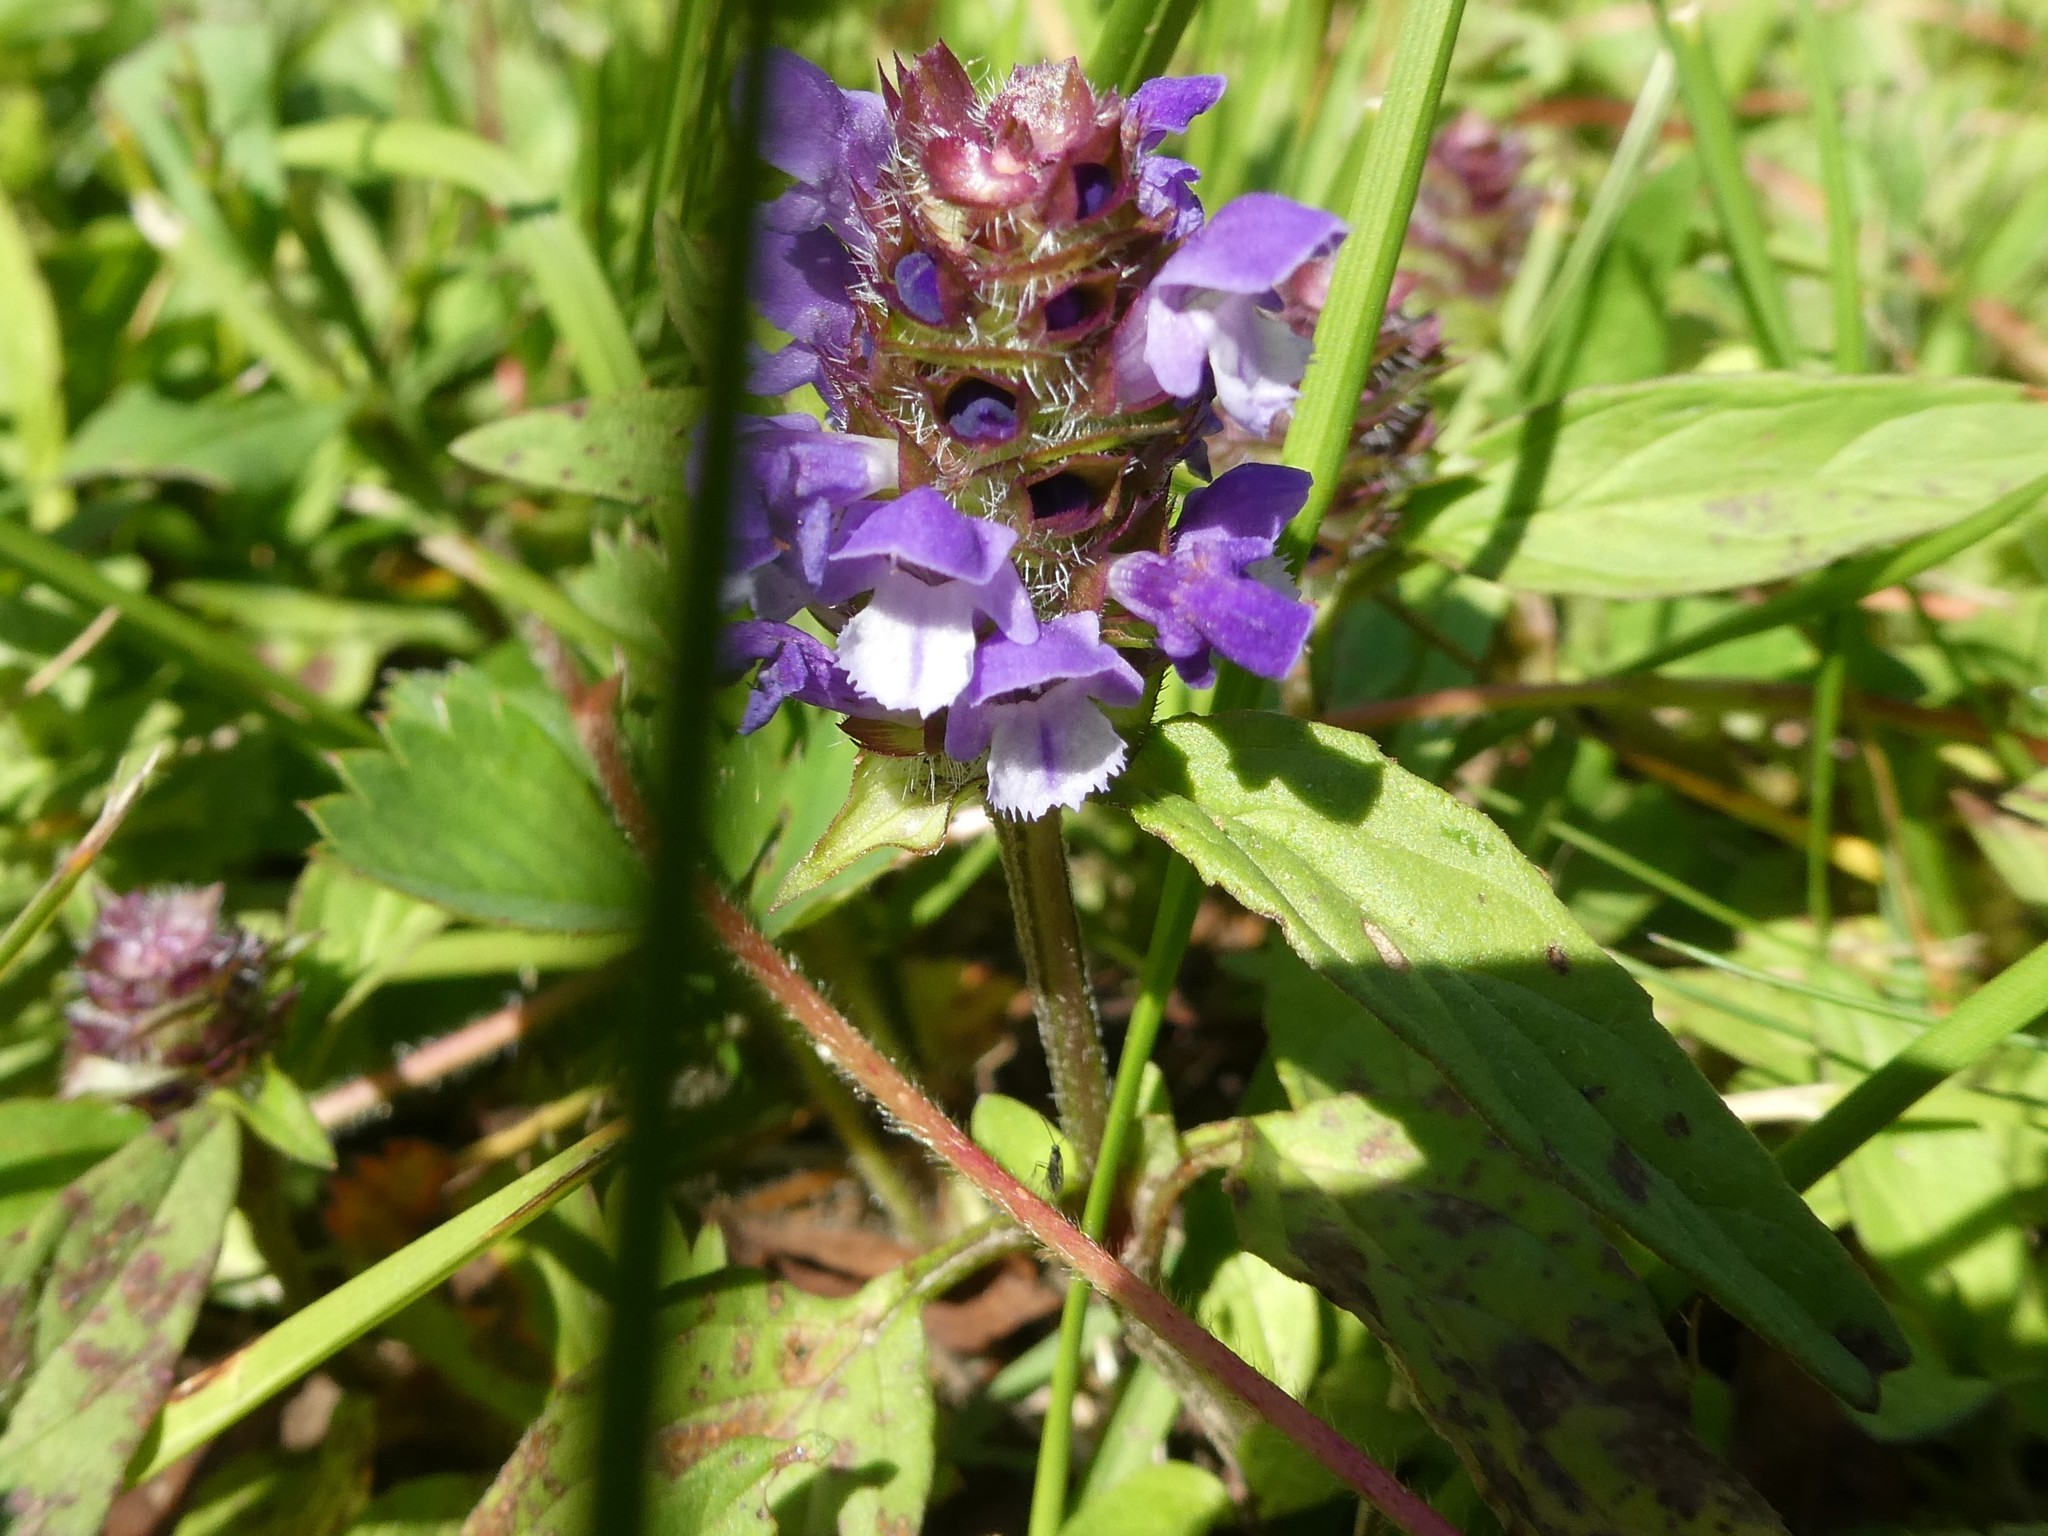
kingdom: Plantae
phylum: Tracheophyta
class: Magnoliopsida
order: Lamiales
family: Lamiaceae
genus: Prunella
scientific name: Prunella vulgaris
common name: Heal-all
